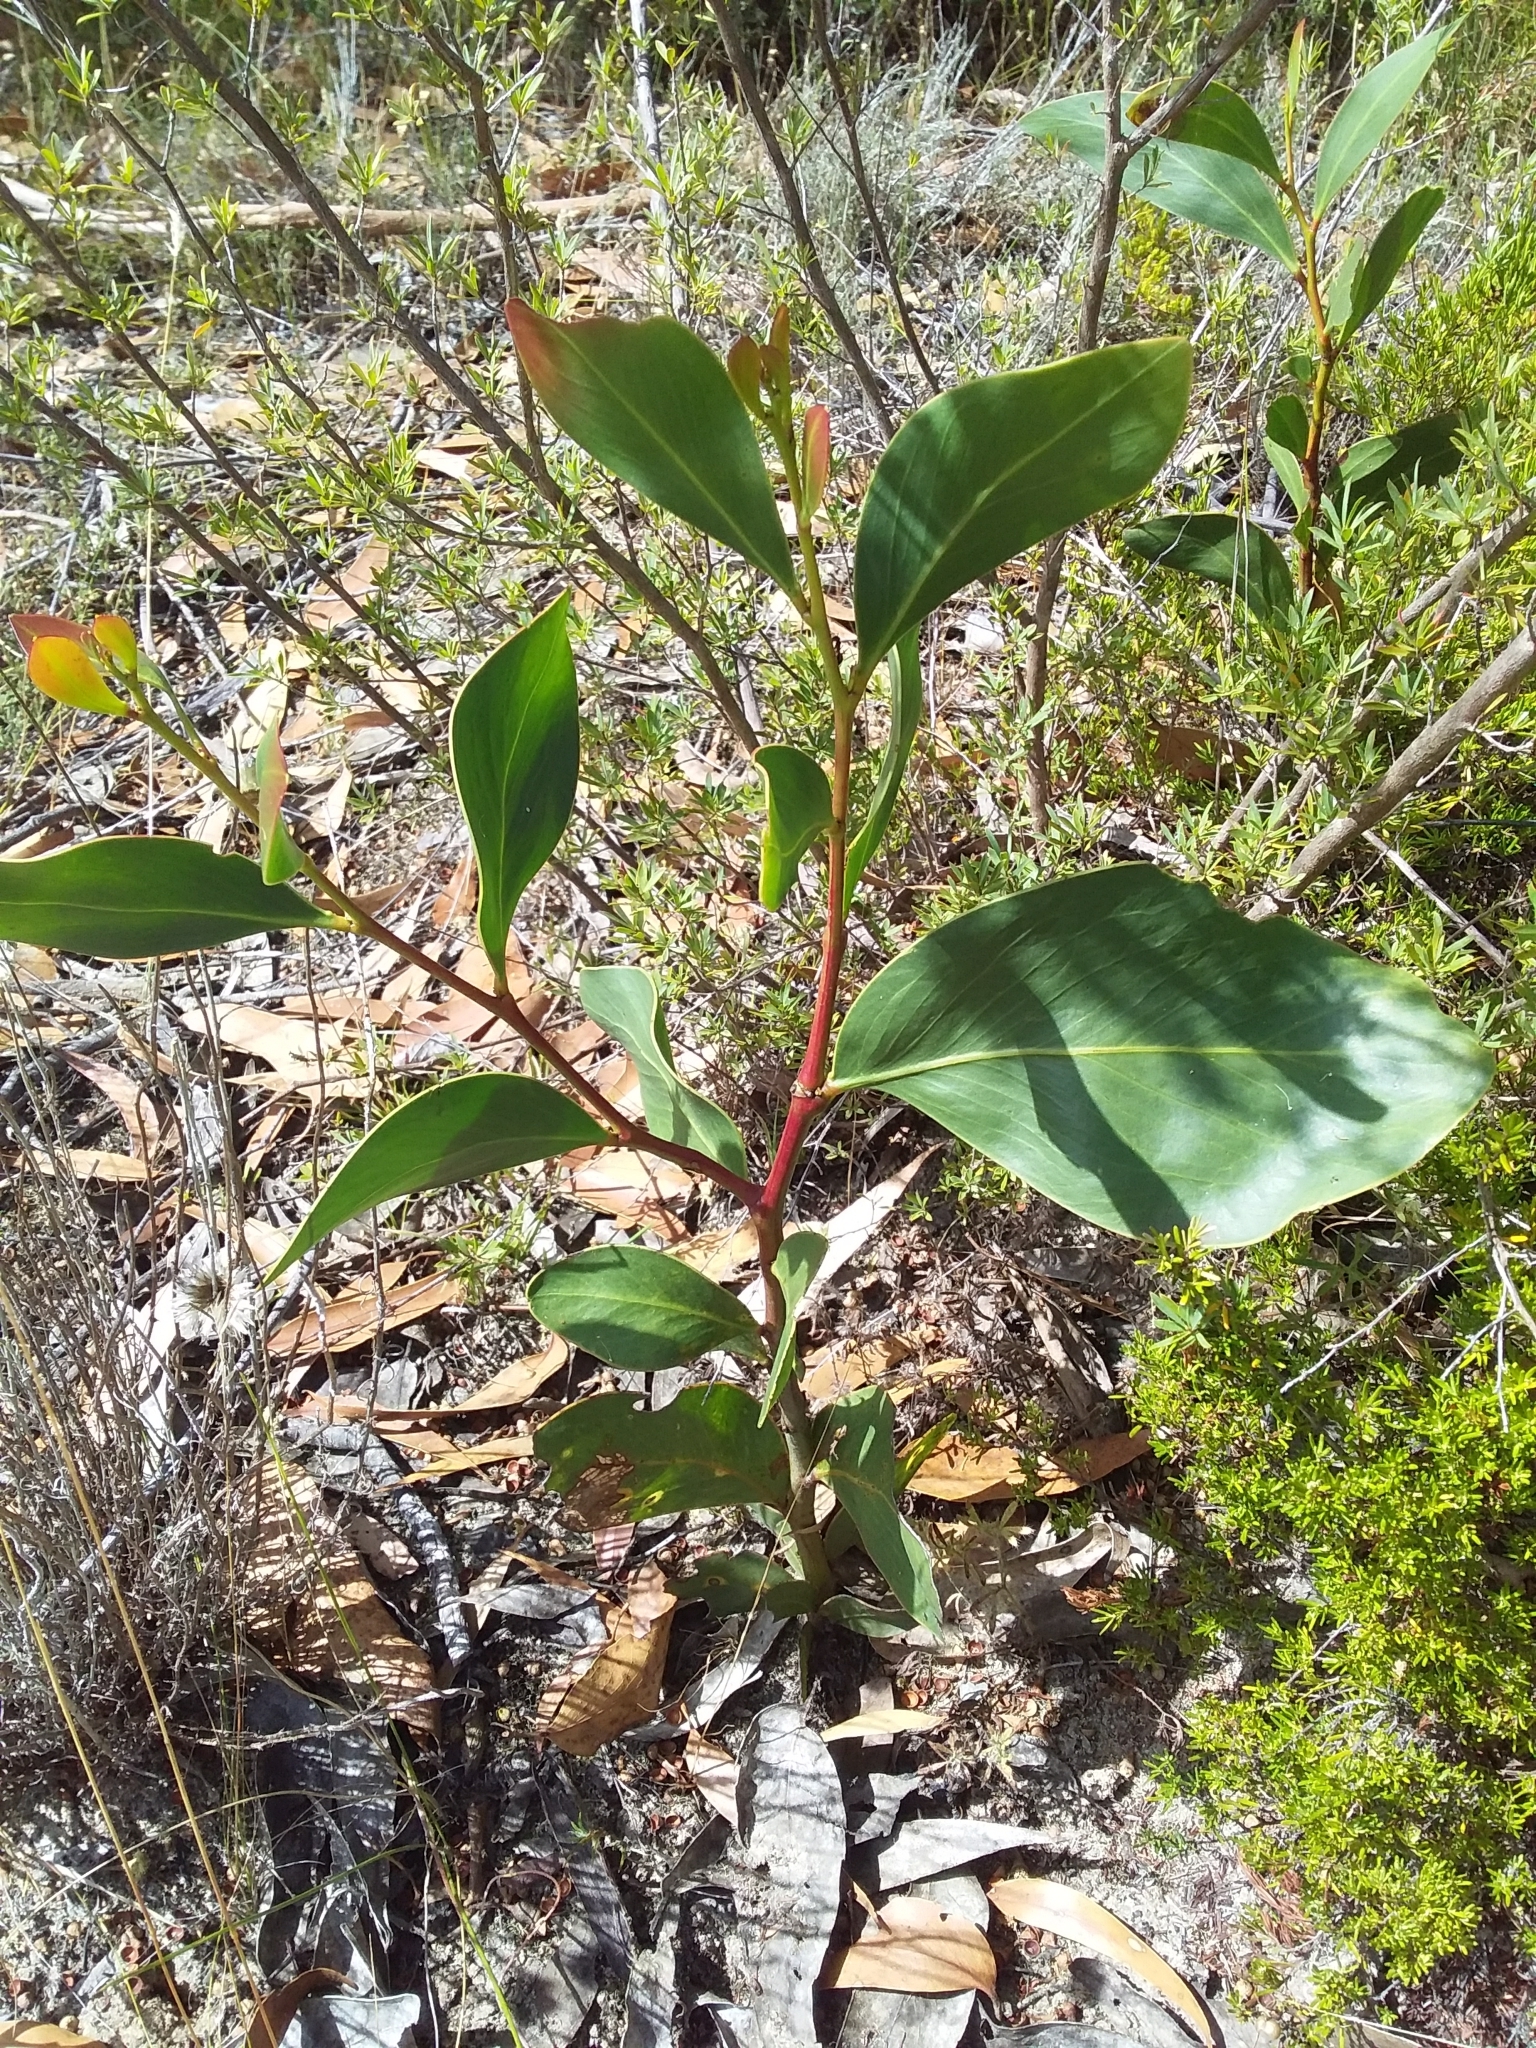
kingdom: Plantae
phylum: Tracheophyta
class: Magnoliopsida
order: Fabales
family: Fabaceae
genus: Acacia
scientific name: Acacia pycnantha
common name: Golden wattle
